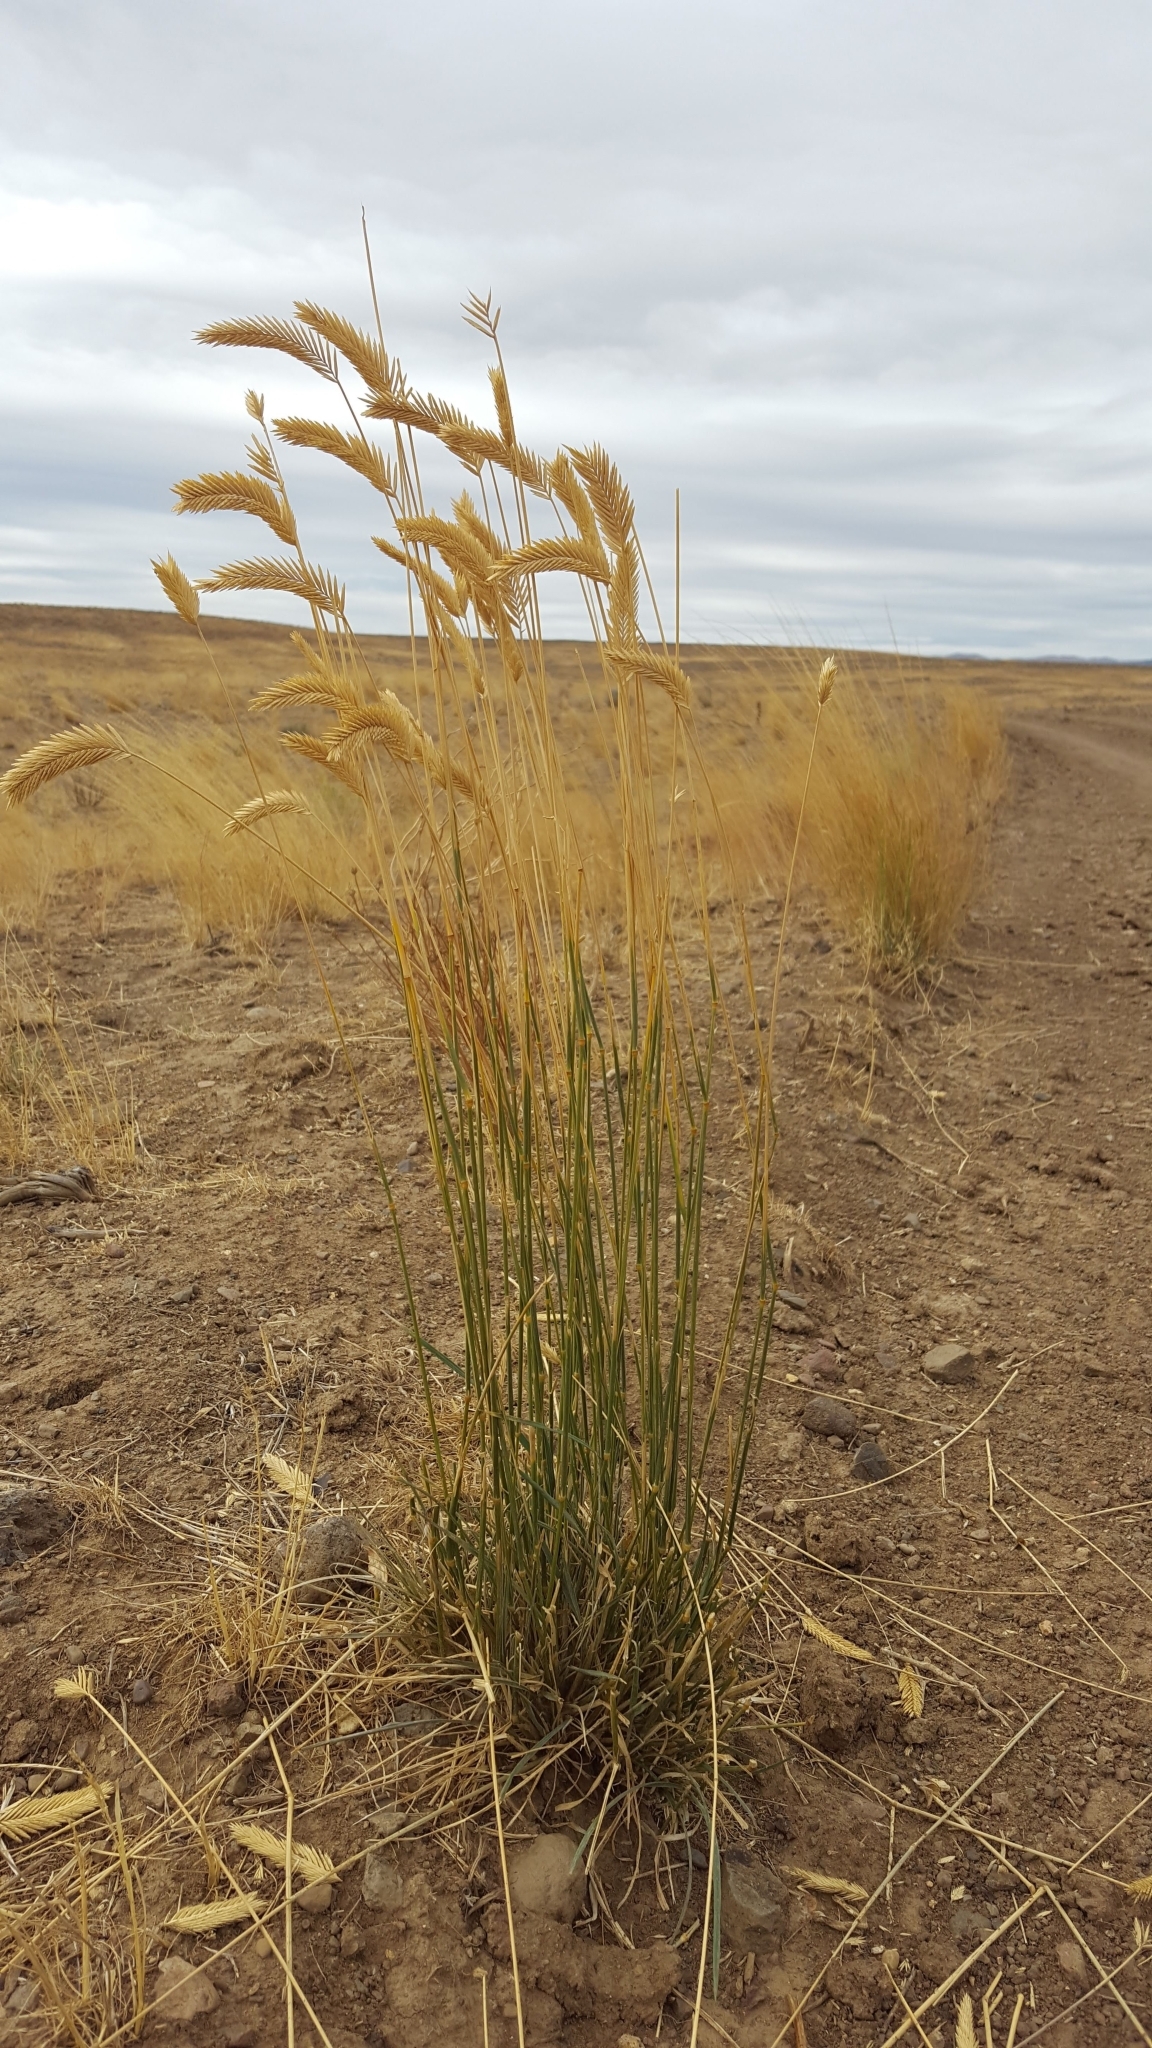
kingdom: Plantae
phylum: Tracheophyta
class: Liliopsida
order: Poales
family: Poaceae
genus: Agropyron
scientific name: Agropyron cristatum
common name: Crested wheatgrass
